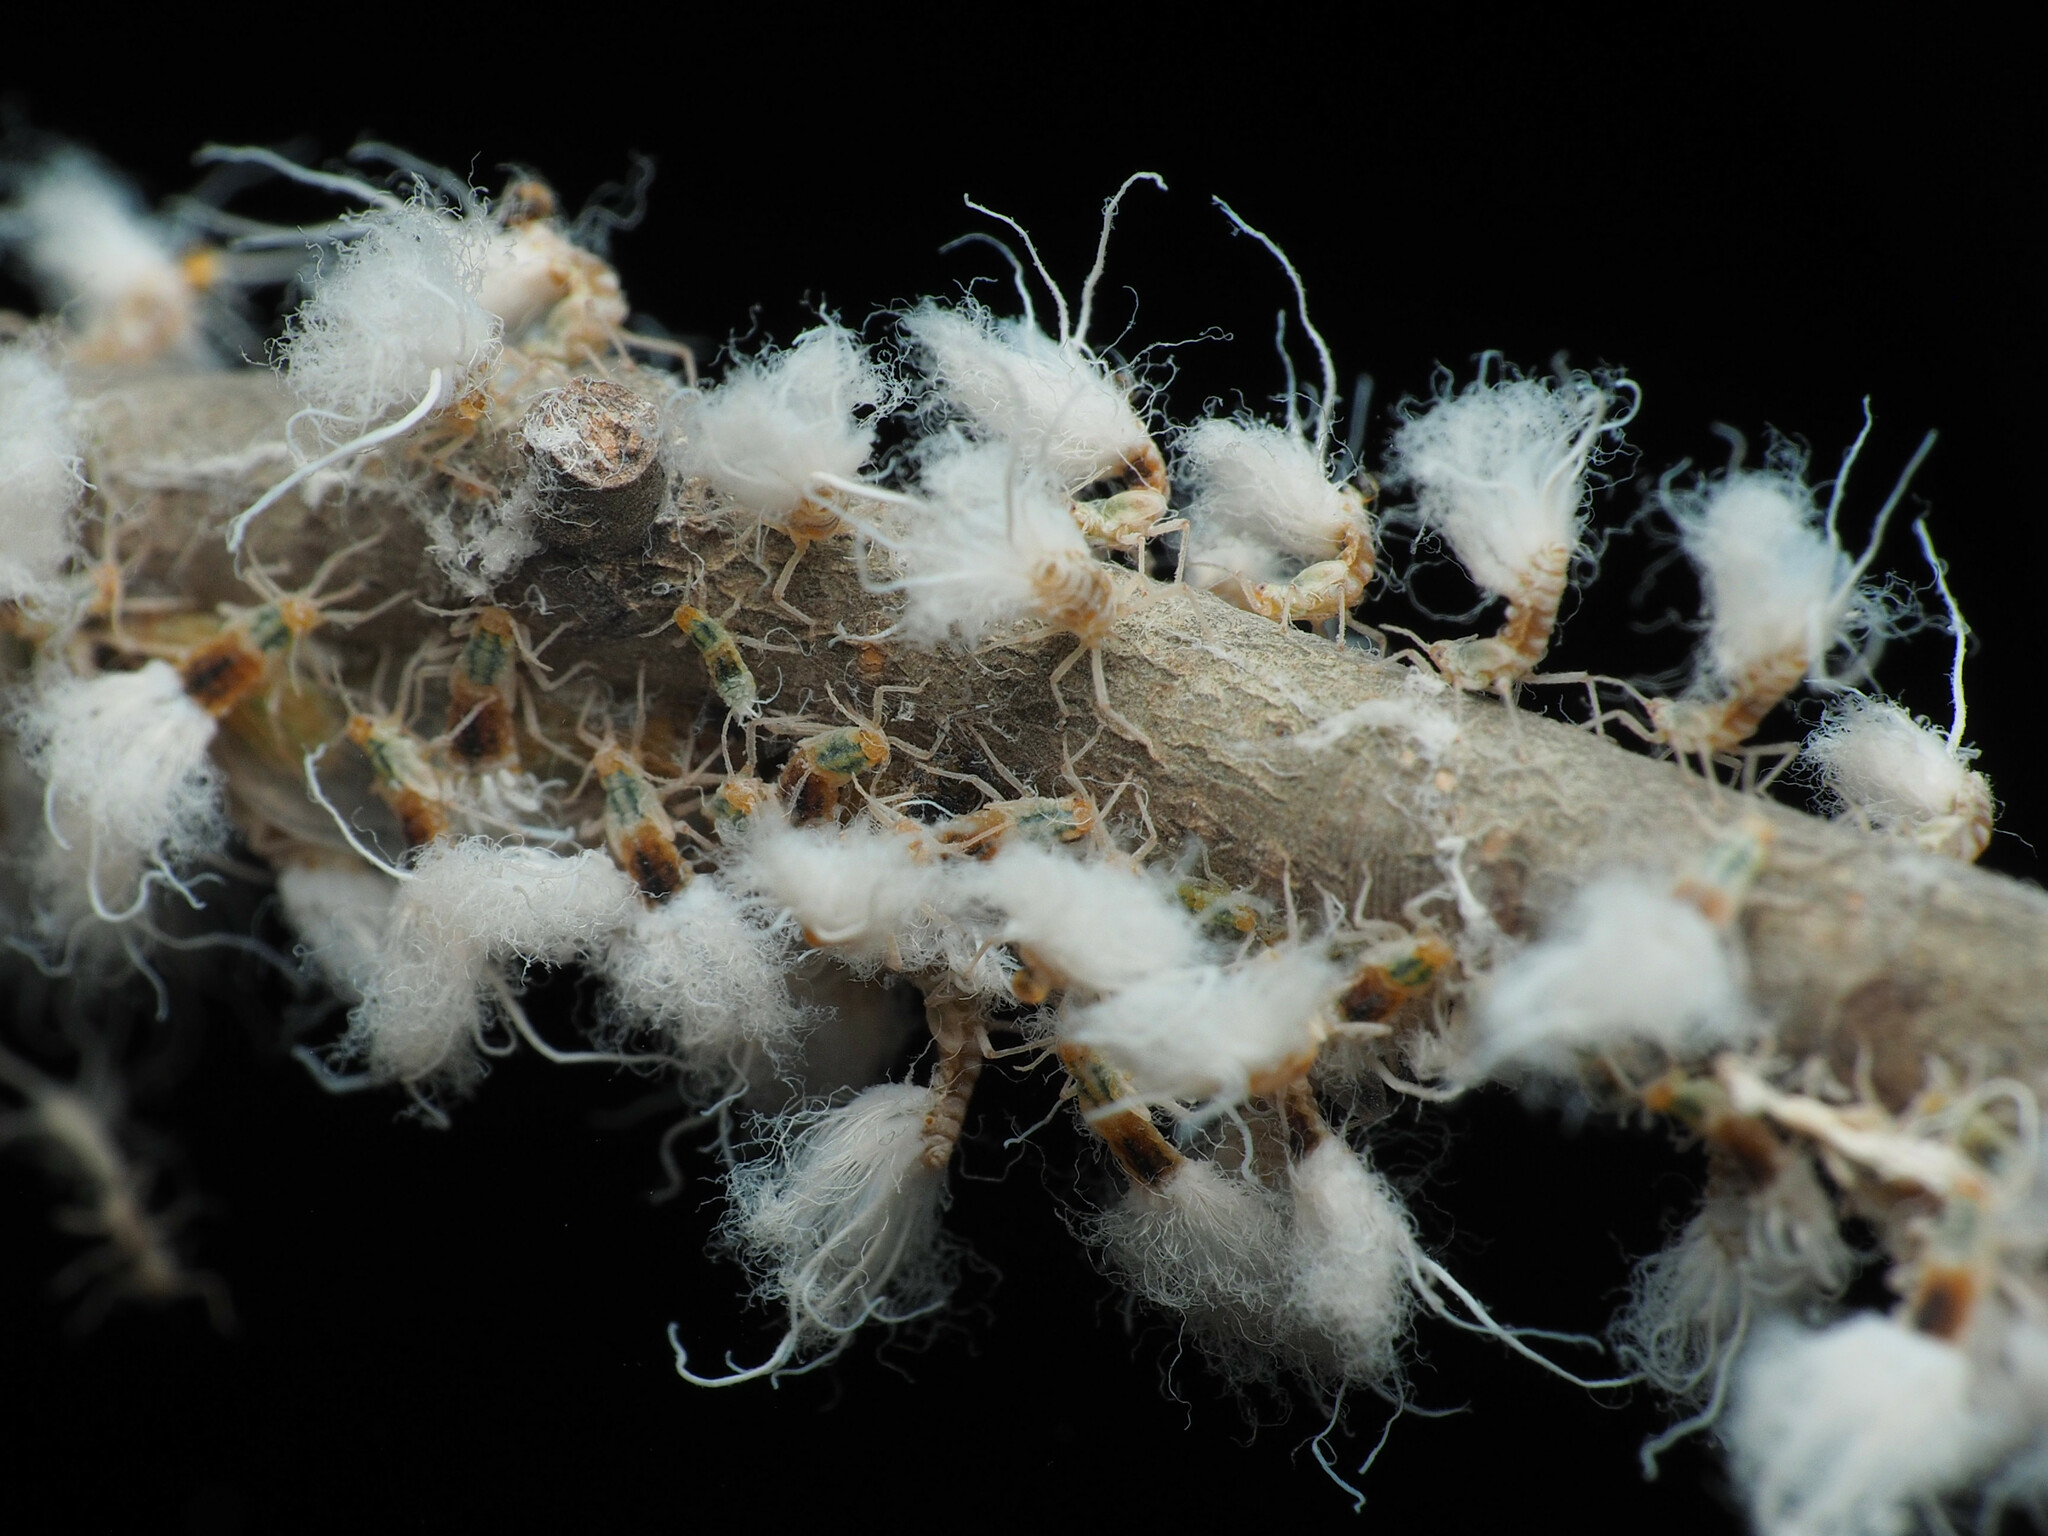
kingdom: Animalia
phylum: Arthropoda
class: Insecta
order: Hemiptera
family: Aphididae
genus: Grylloprociphilus
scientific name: Grylloprociphilus imbricator
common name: Beech blight aphid
